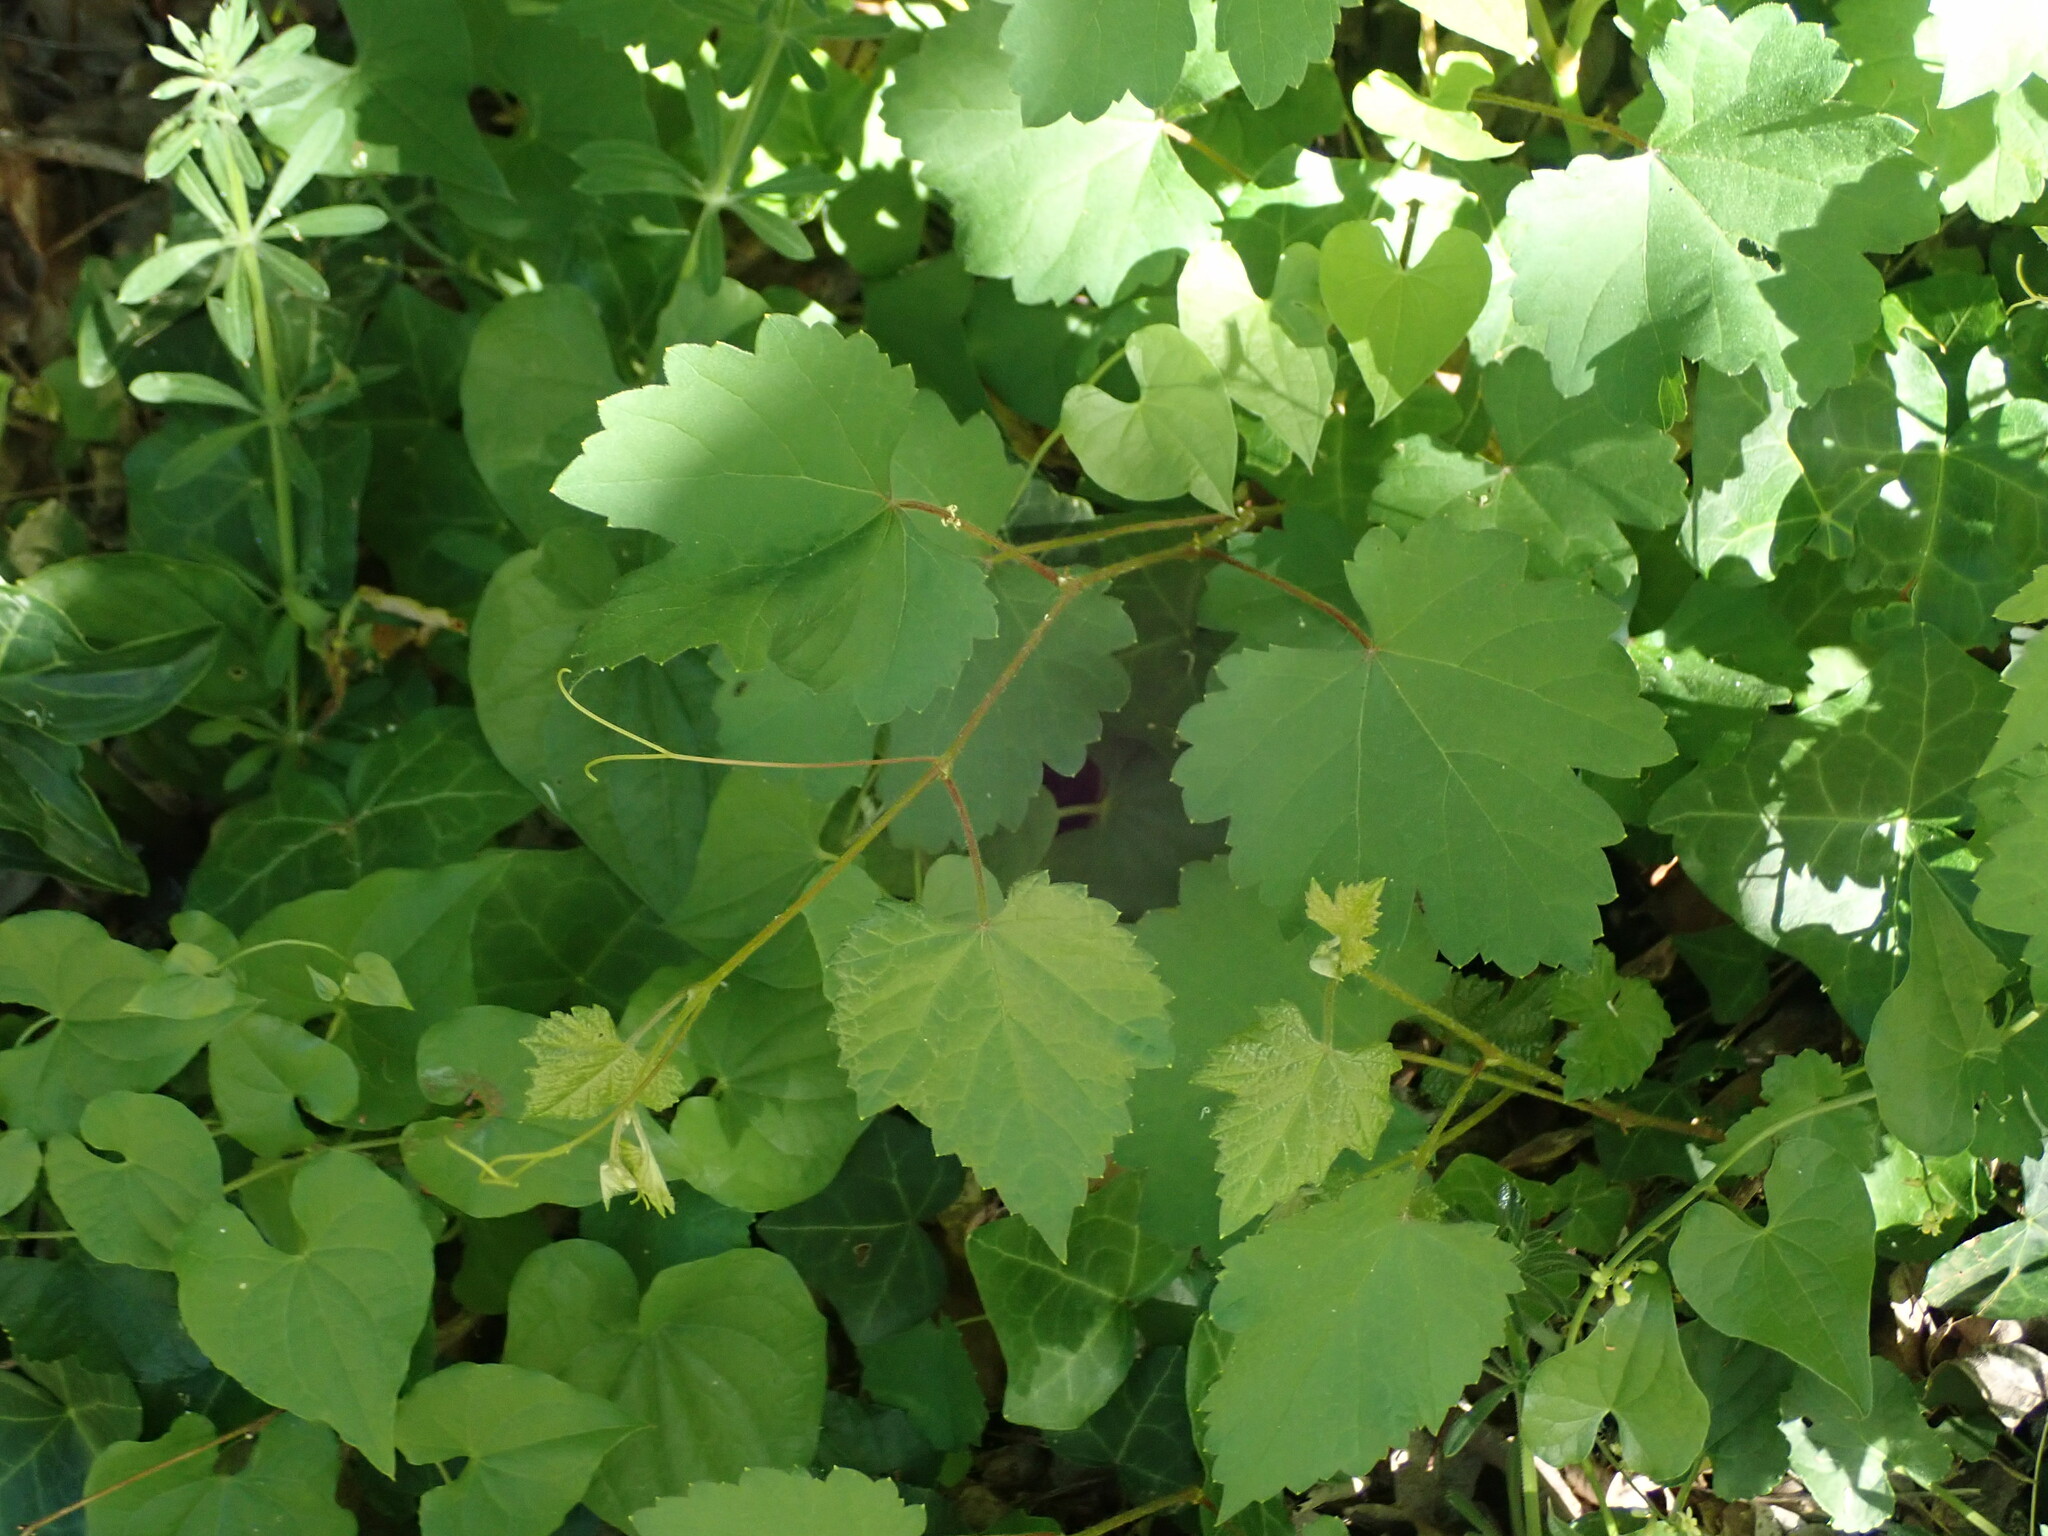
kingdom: Plantae
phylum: Tracheophyta
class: Magnoliopsida
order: Vitales
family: Vitaceae
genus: Vitis
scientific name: Vitis vinifera
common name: Grape-vine
